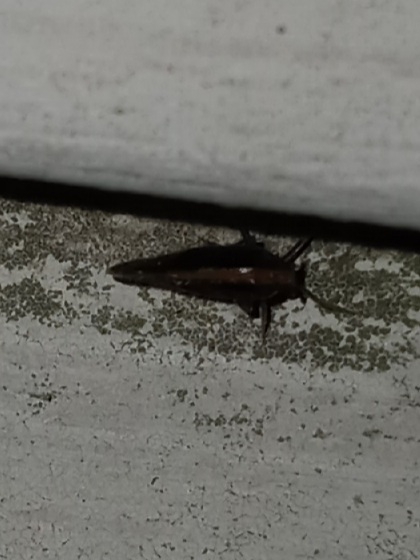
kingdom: Animalia
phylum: Arthropoda
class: Insecta
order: Hemiptera
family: Cixiidae
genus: Pintalia
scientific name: Pintalia delicata
